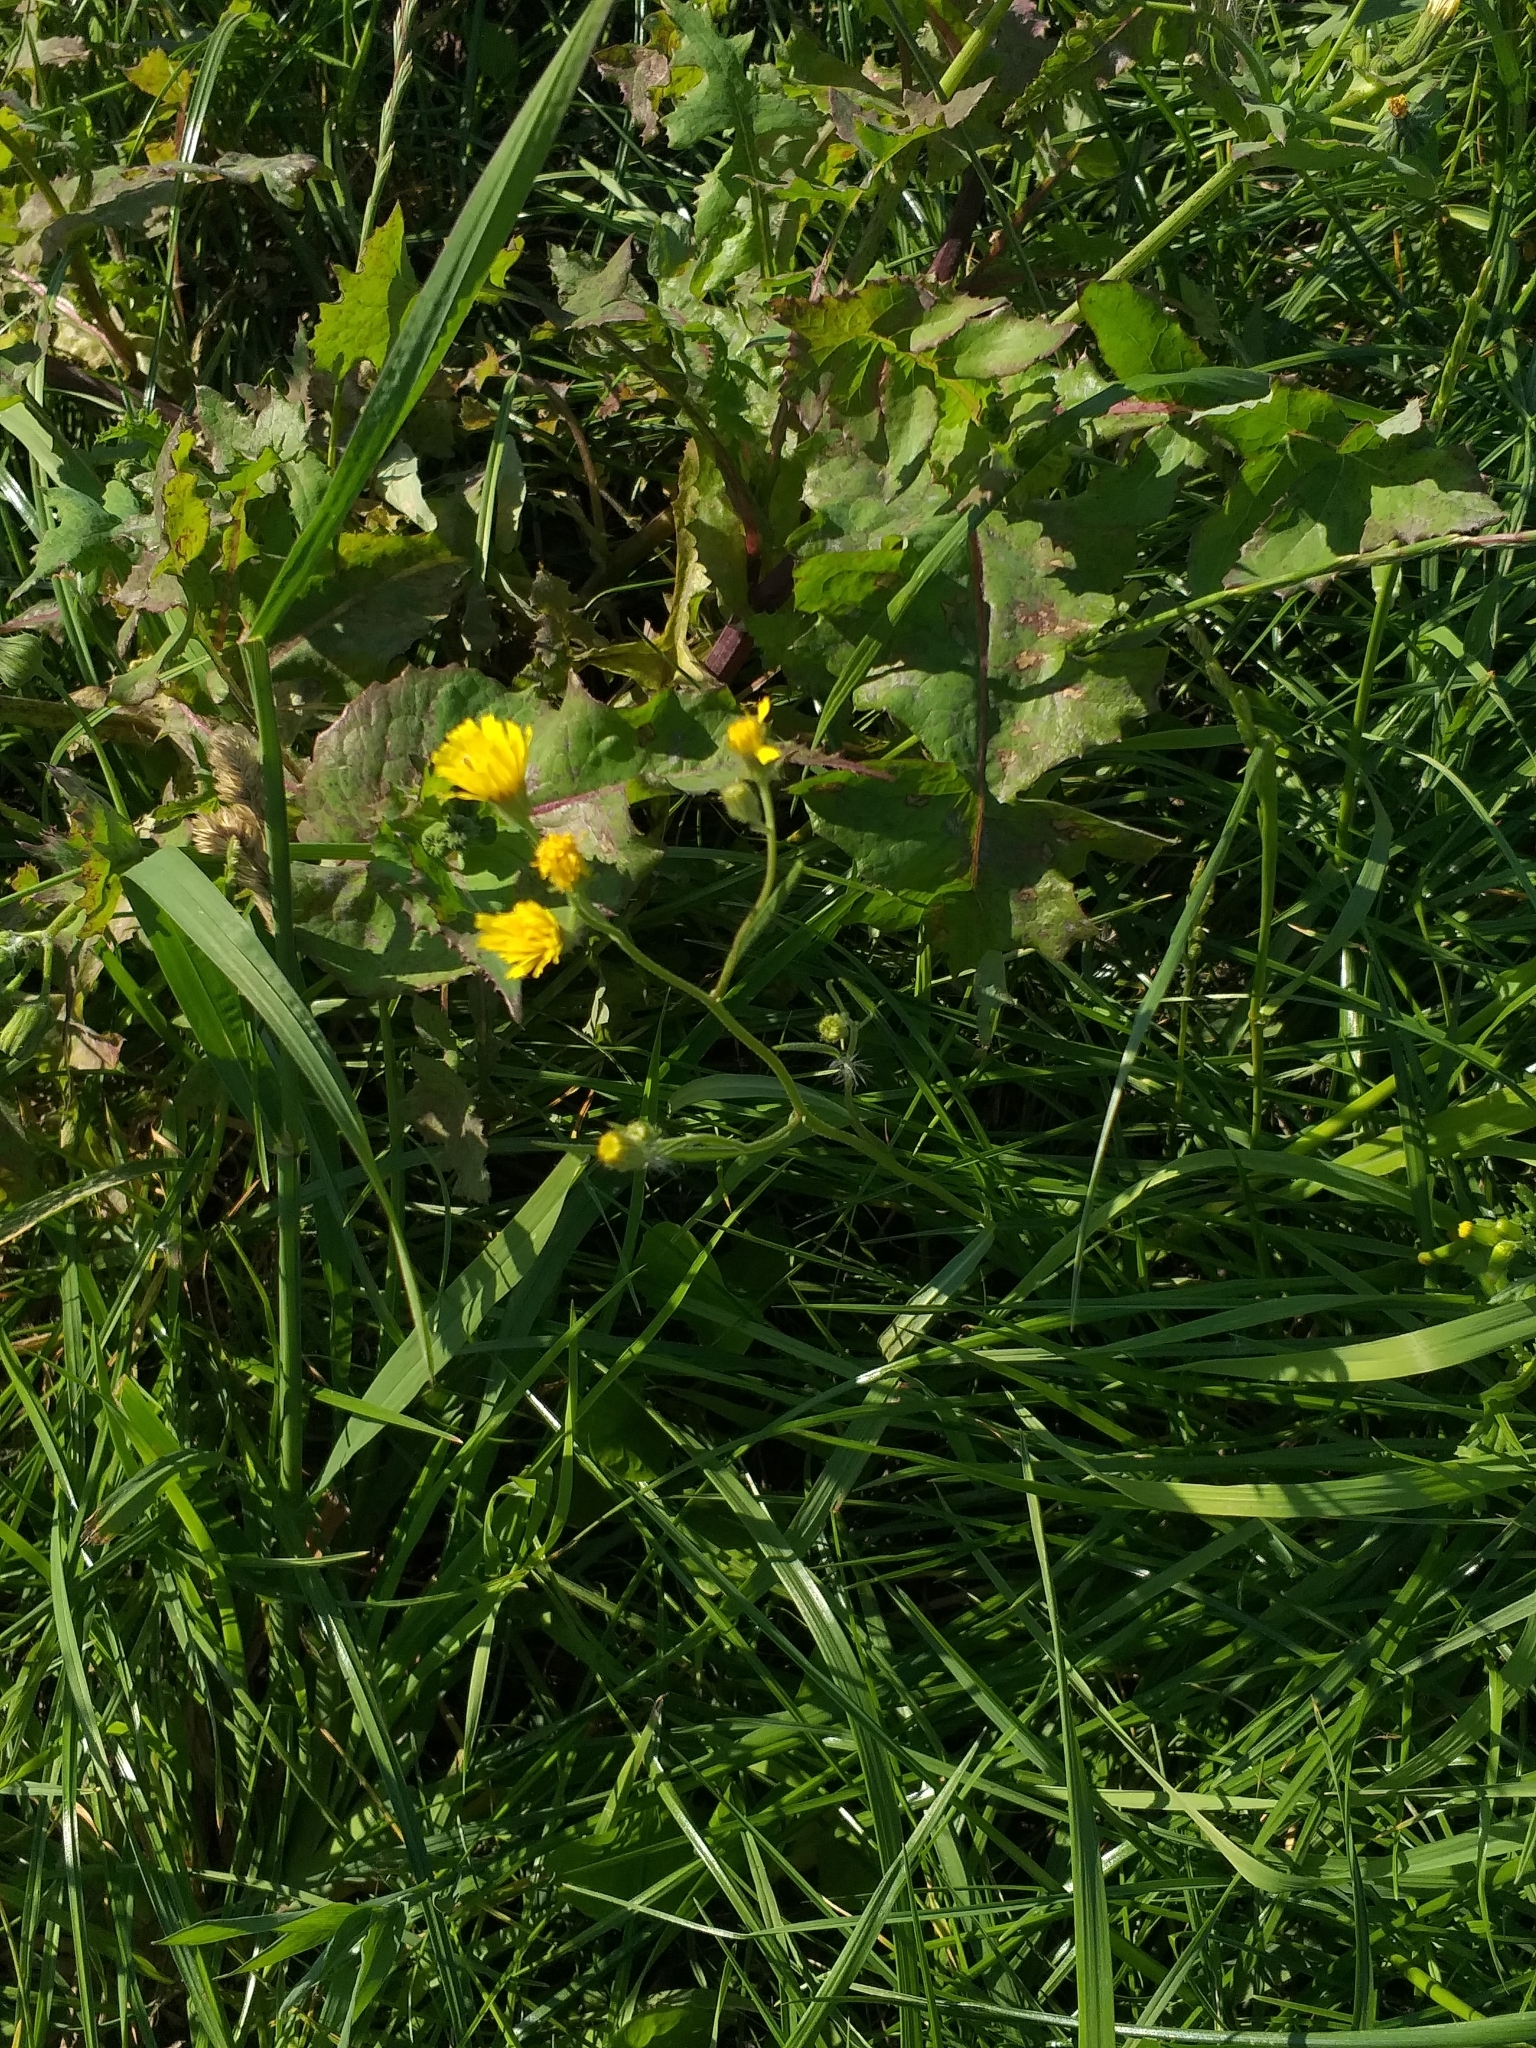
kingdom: Plantae
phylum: Tracheophyta
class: Magnoliopsida
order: Asterales
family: Asteraceae
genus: Crepis
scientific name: Crepis tectorum
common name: Narrow-leaved hawk's-beard
